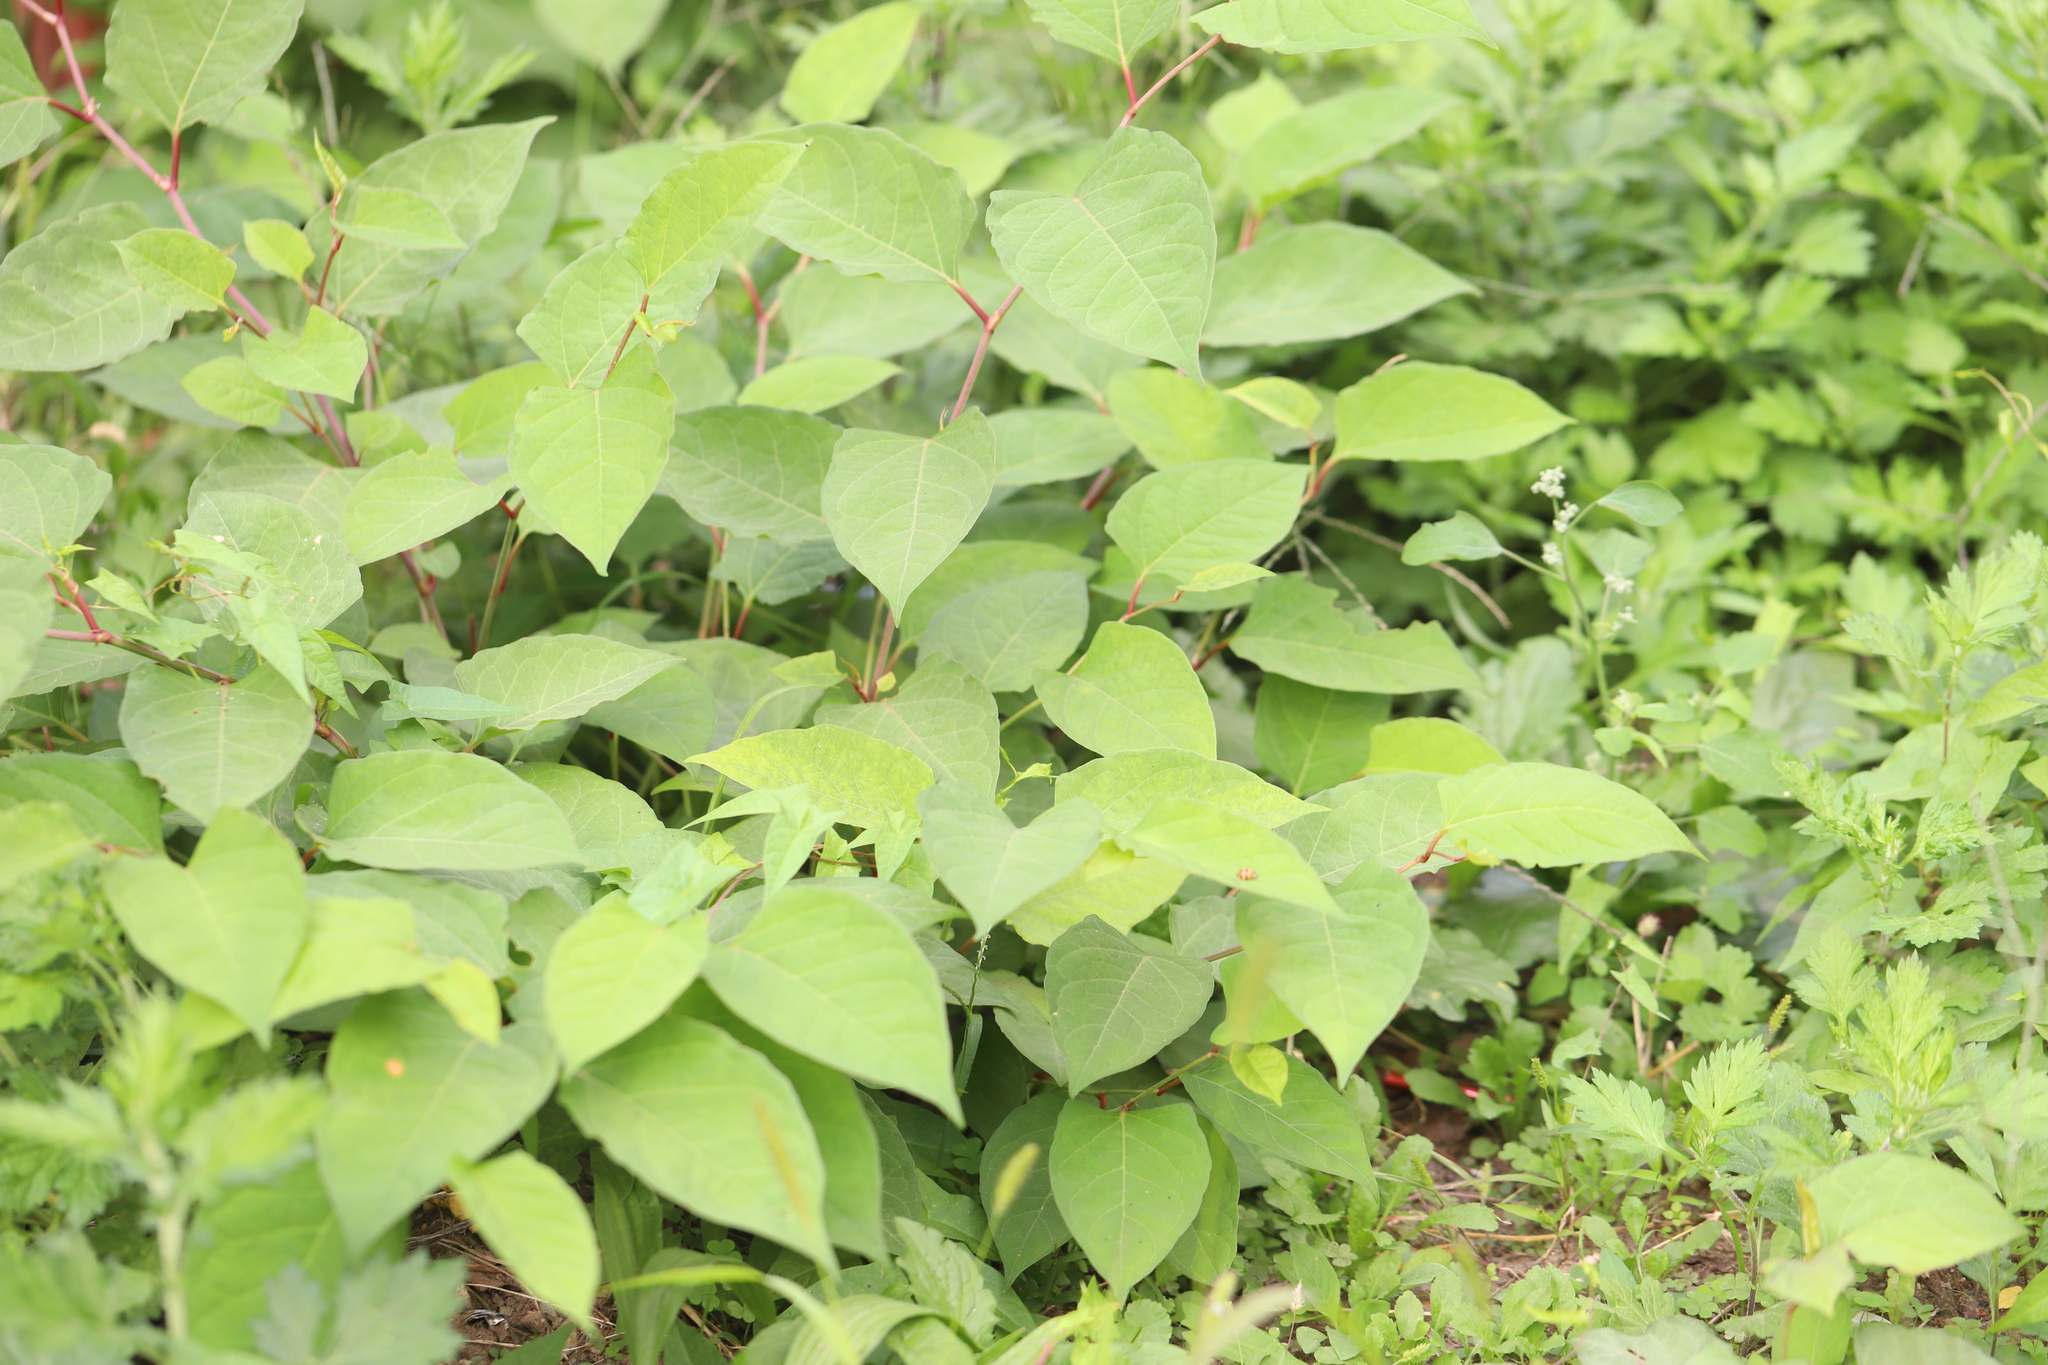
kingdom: Plantae
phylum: Tracheophyta
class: Magnoliopsida
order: Caryophyllales
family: Polygonaceae
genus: Reynoutria
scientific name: Reynoutria japonica
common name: Japanese knotweed
